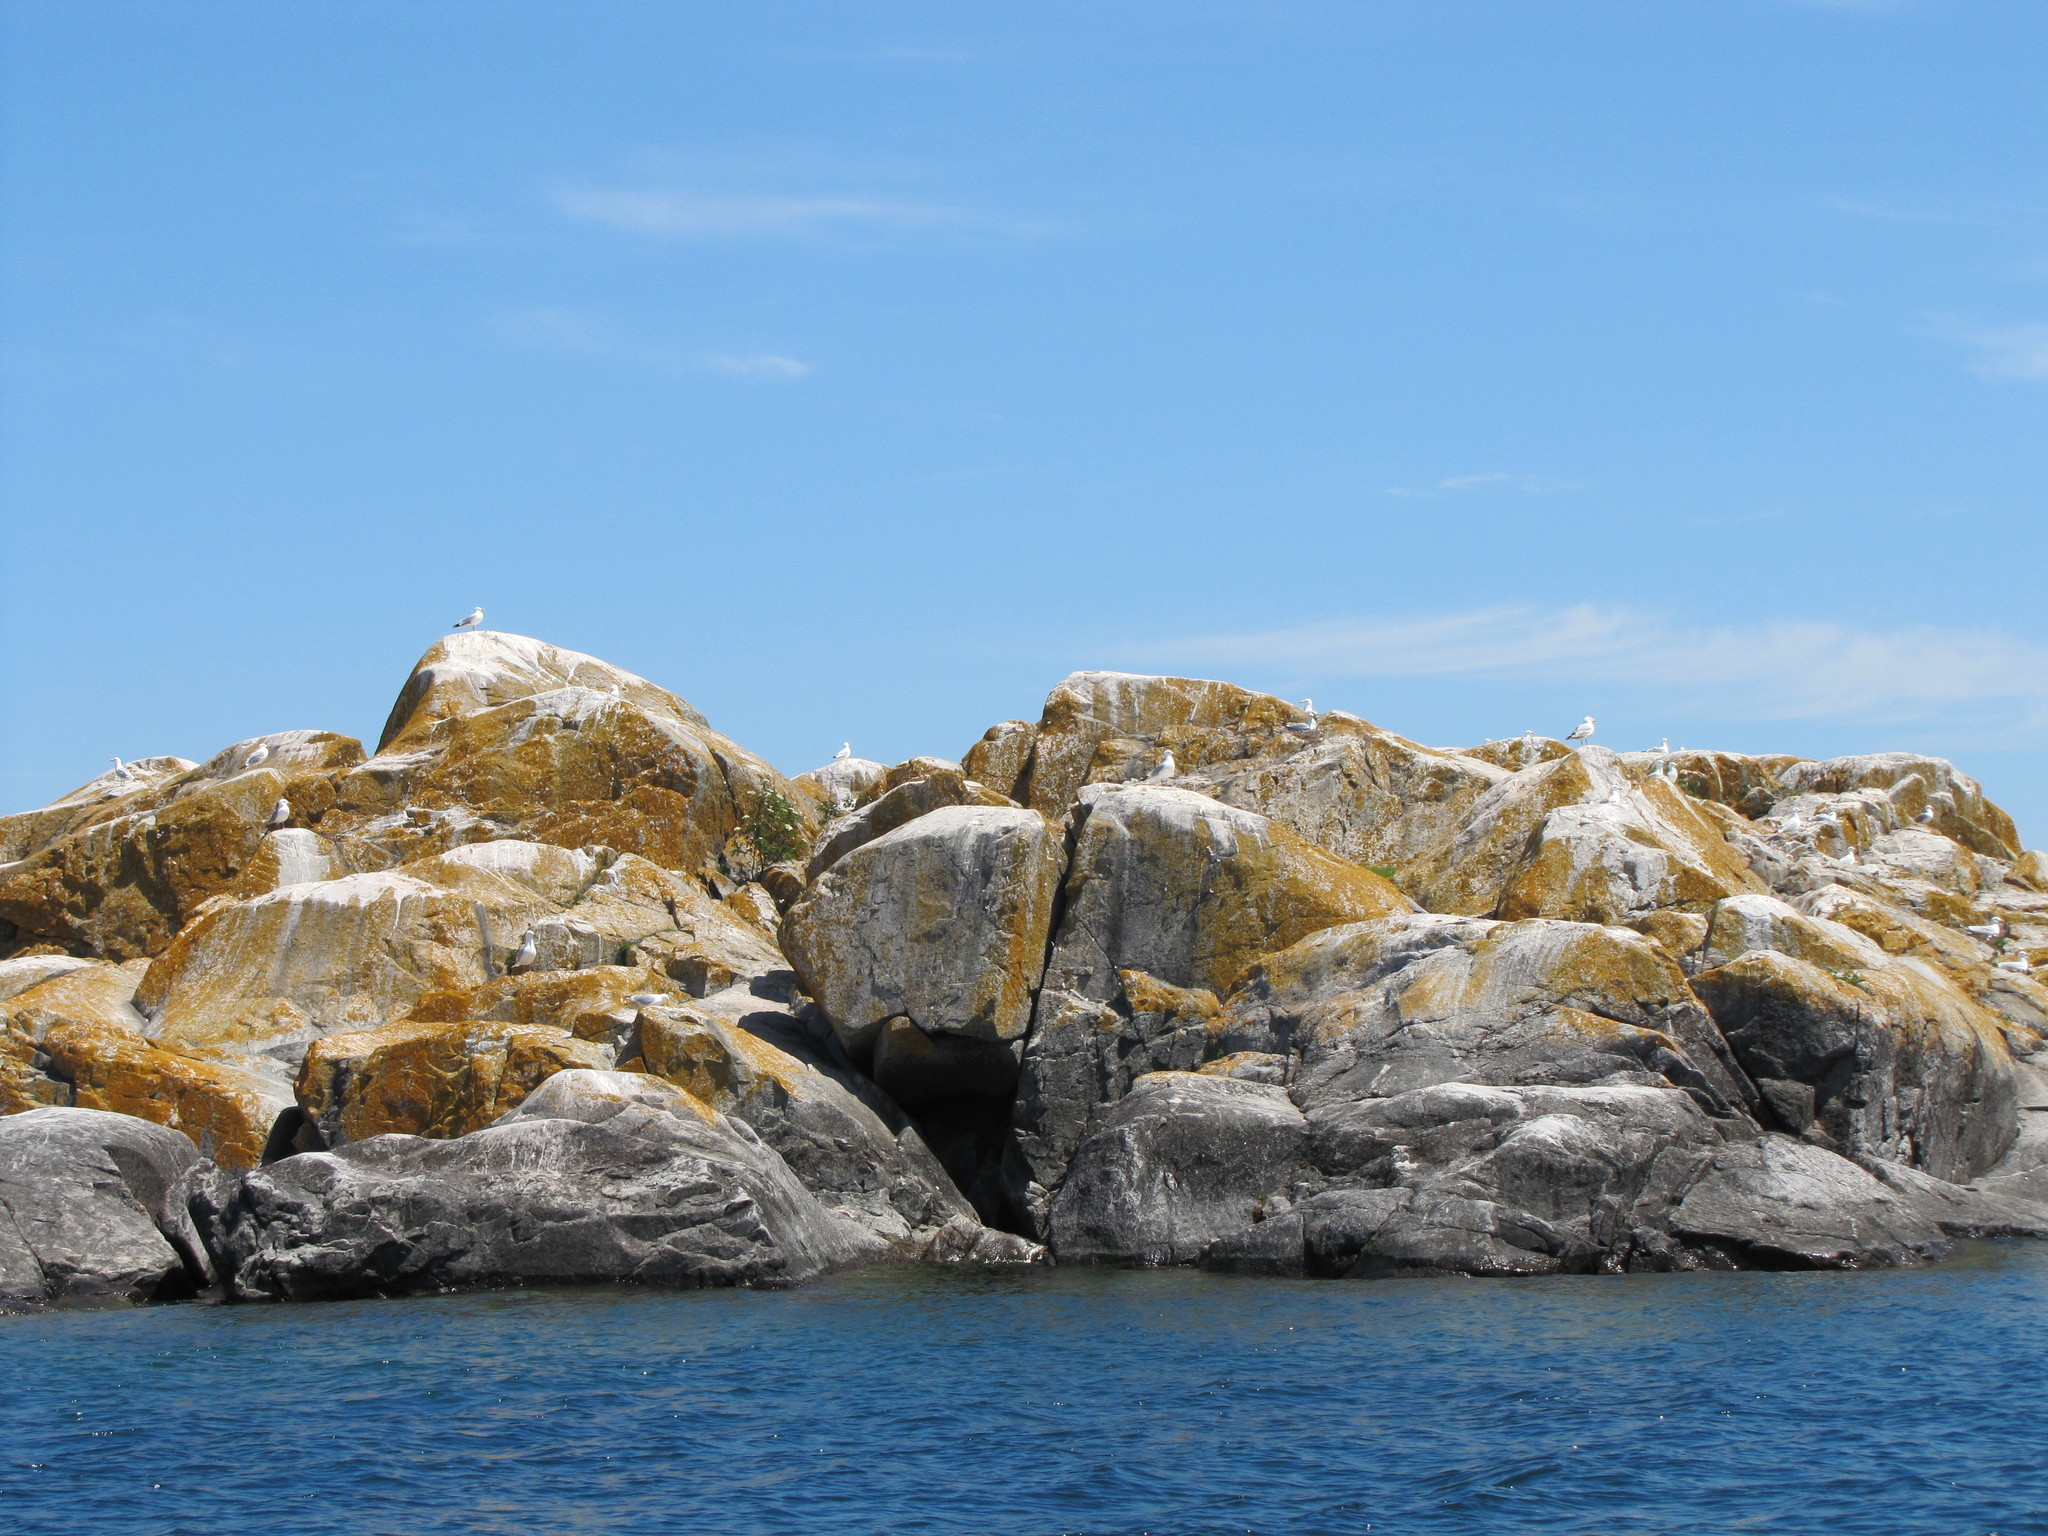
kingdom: Animalia
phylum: Chordata
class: Aves
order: Charadriiformes
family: Laridae
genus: Larus
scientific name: Larus argentatus
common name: Herring gull
